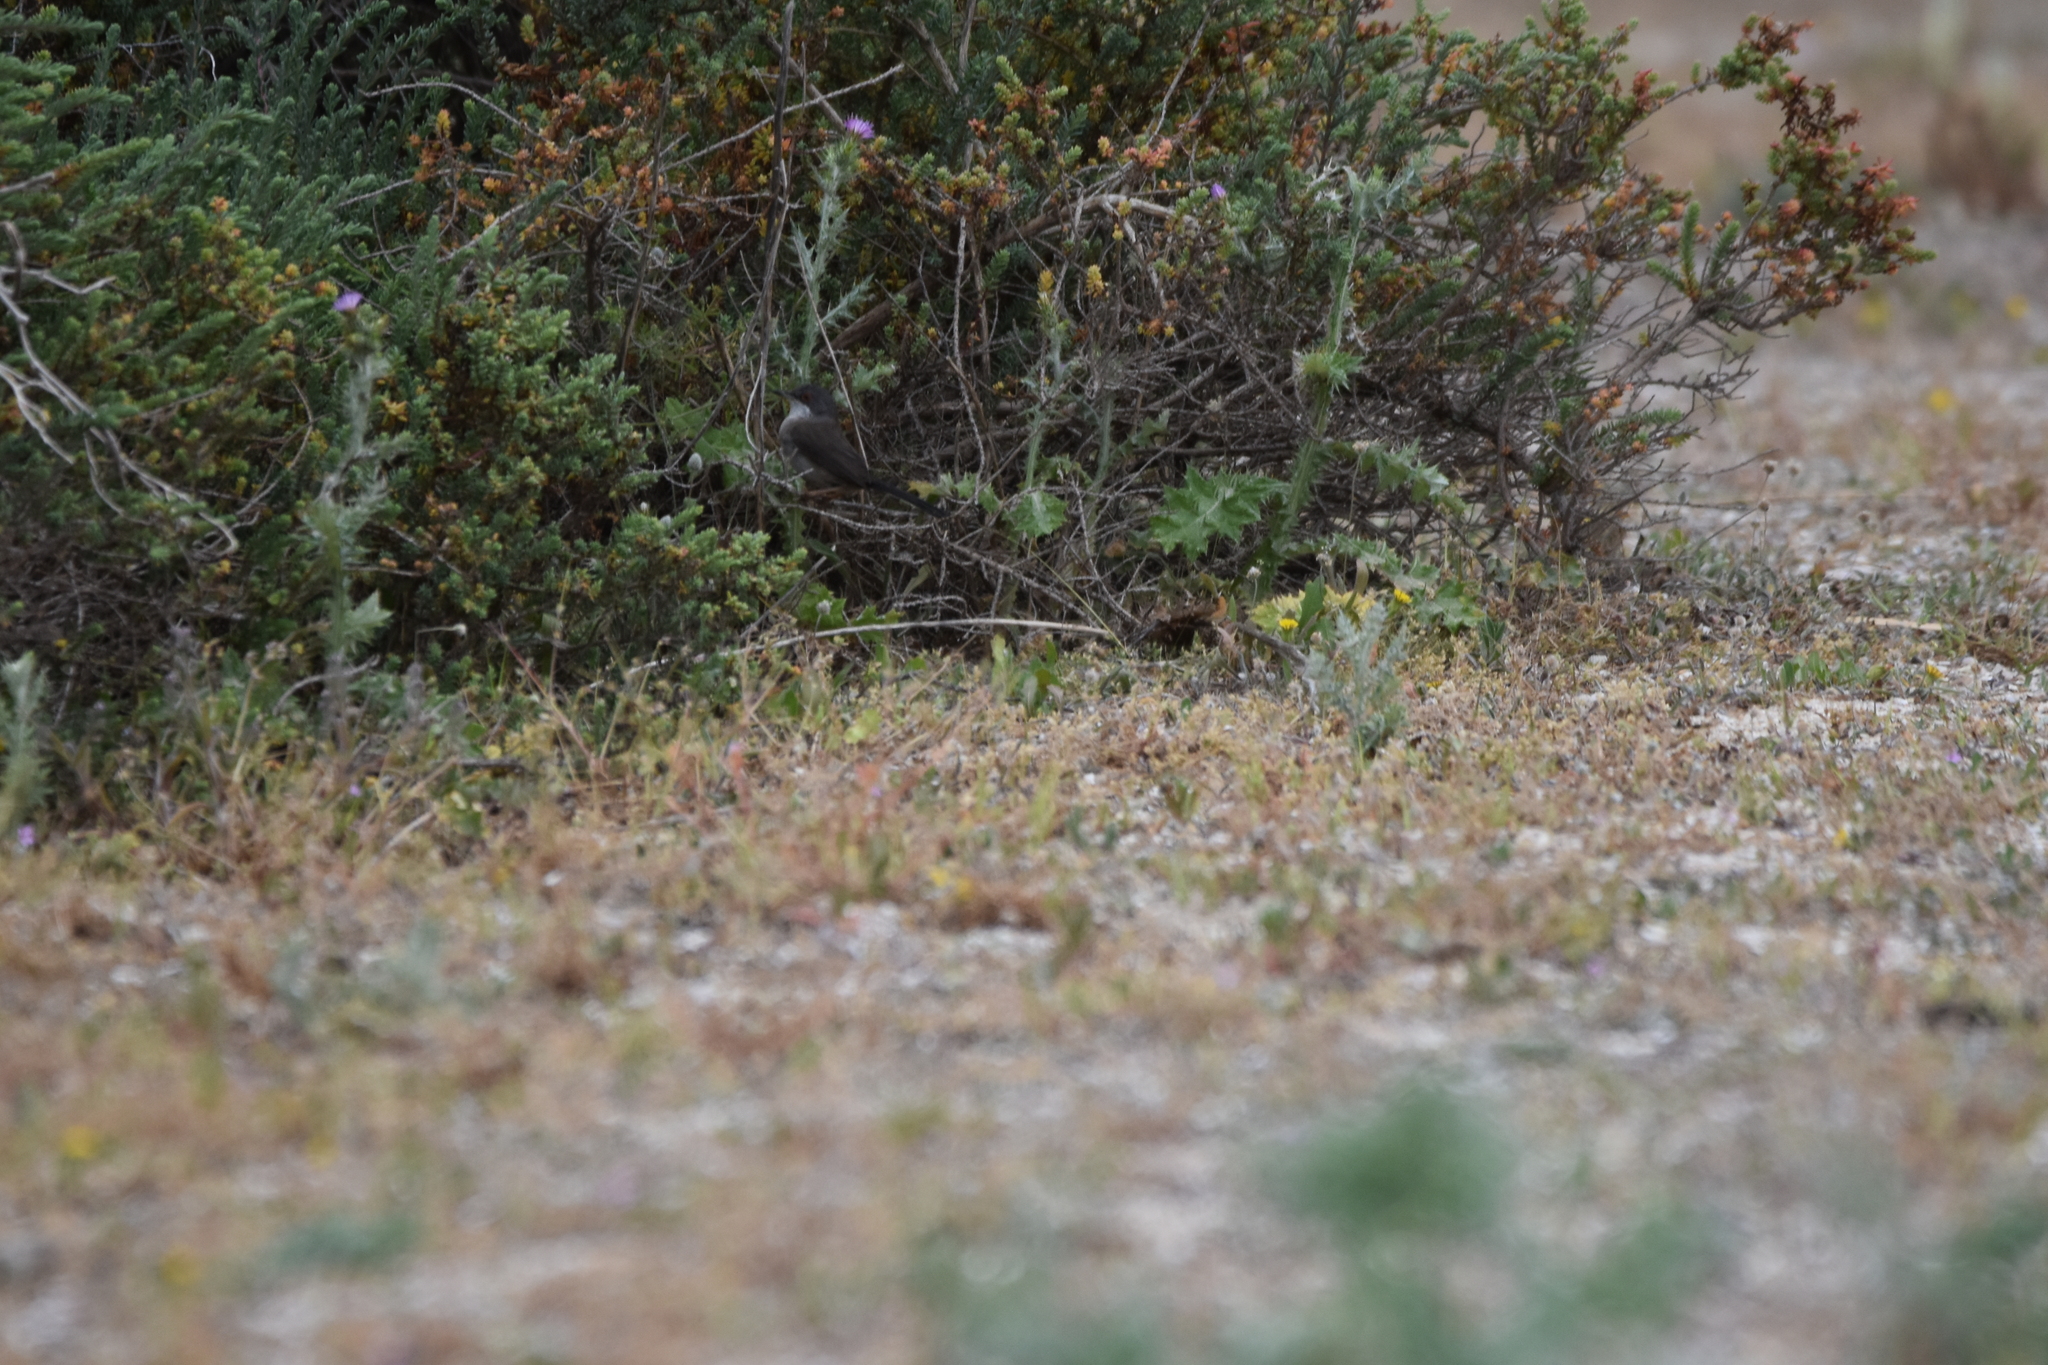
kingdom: Animalia
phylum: Chordata
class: Aves
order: Passeriformes
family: Sylviidae
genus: Curruca
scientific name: Curruca melanocephala
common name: Sardinian warbler
